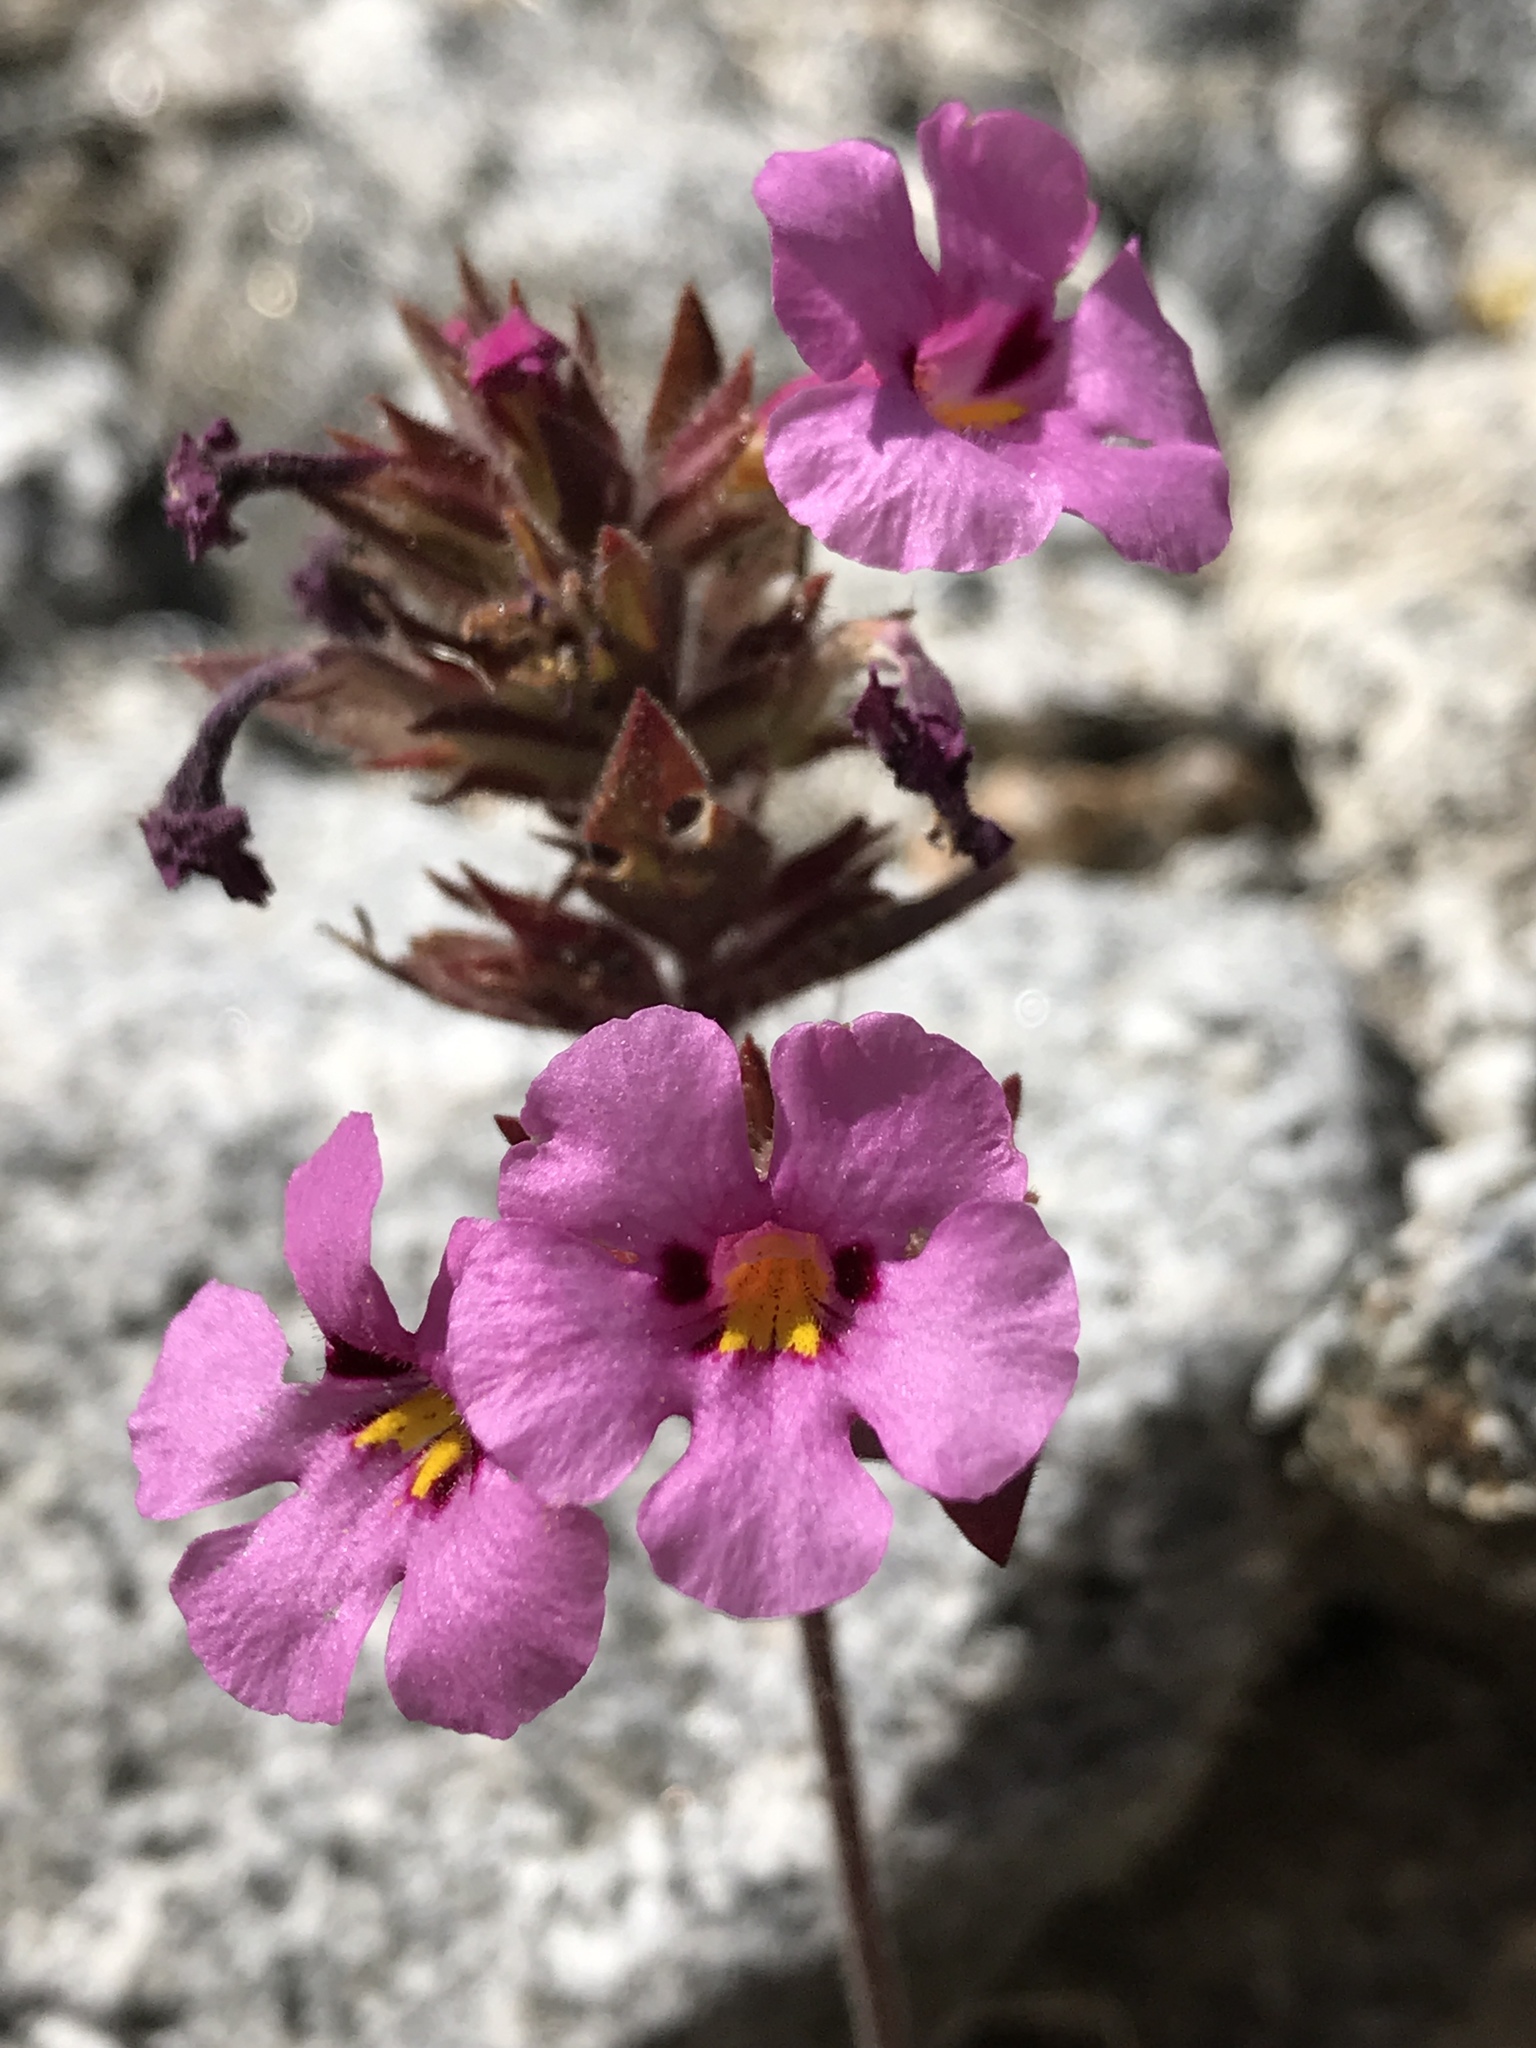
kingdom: Plantae
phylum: Tracheophyta
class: Magnoliopsida
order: Lamiales
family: Phrymaceae
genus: Diplacus
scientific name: Diplacus bigelovii
